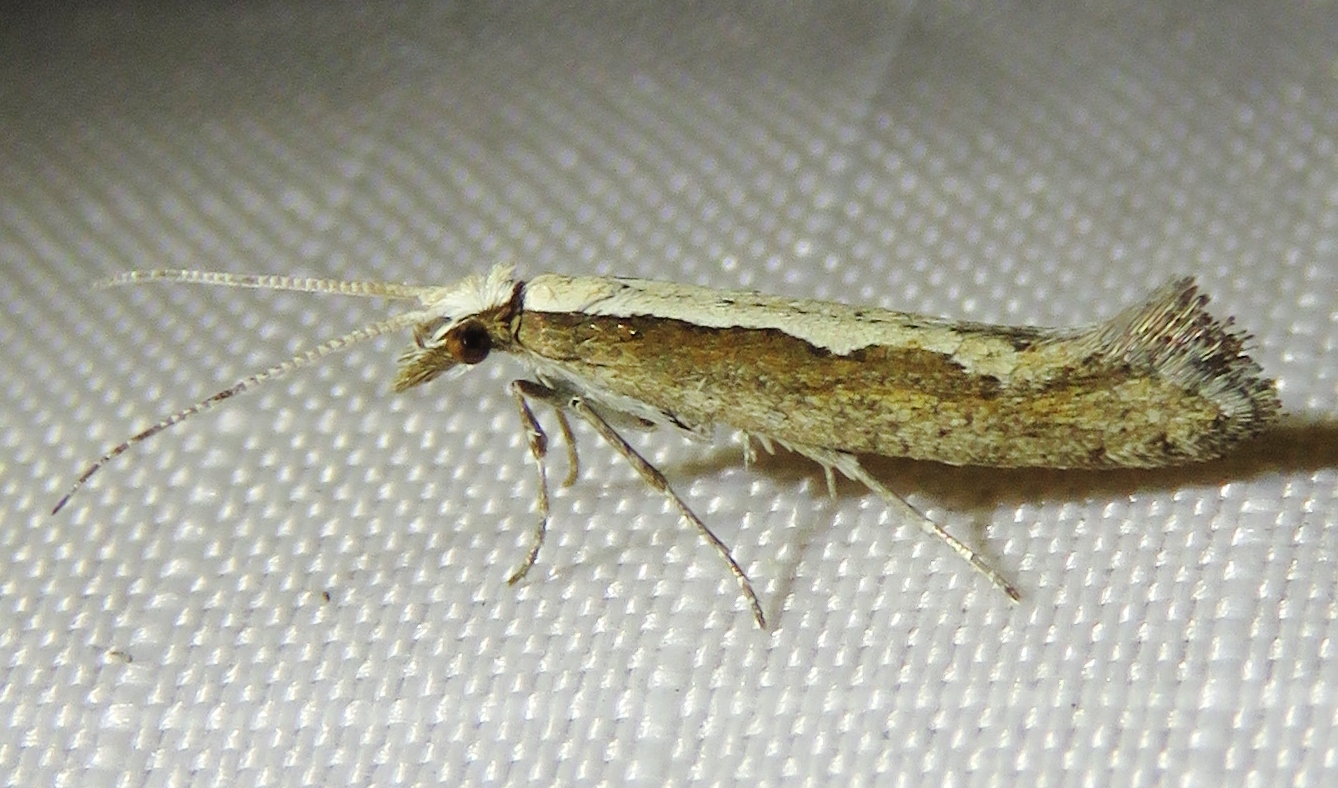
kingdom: Animalia
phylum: Arthropoda
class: Insecta
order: Lepidoptera
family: Plutellidae
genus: Plutella
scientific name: Plutella xylostella
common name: Diamond-back moth
